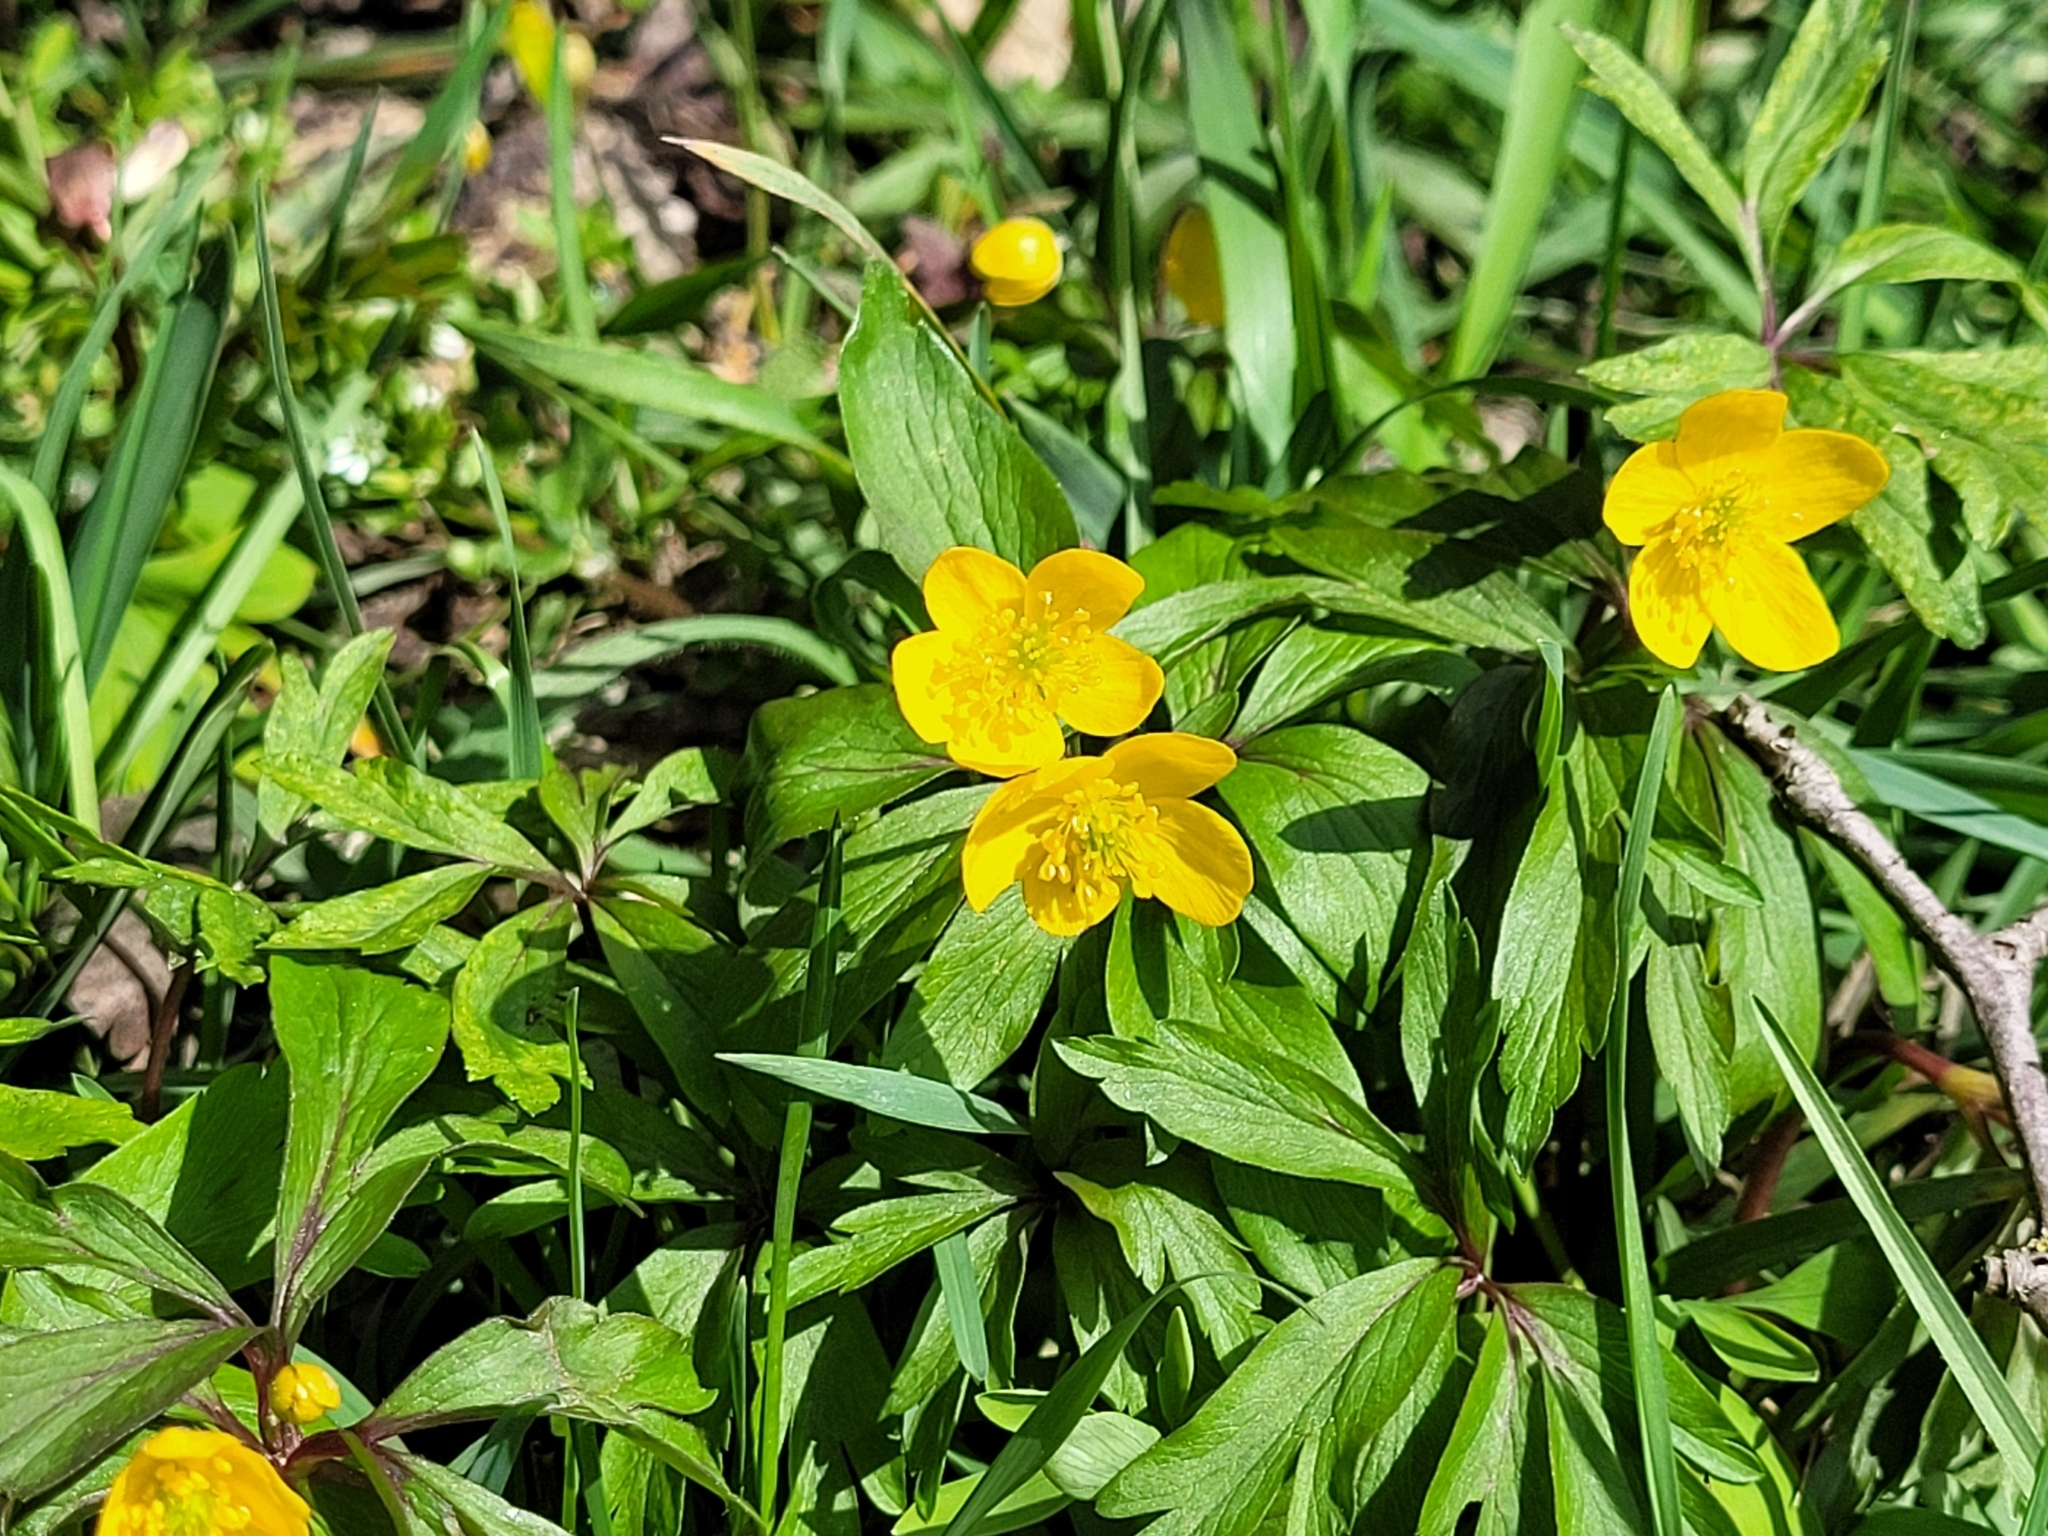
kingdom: Plantae
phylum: Tracheophyta
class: Magnoliopsida
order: Ranunculales
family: Ranunculaceae
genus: Anemone
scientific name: Anemone ranunculoides
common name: Yellow anemone
